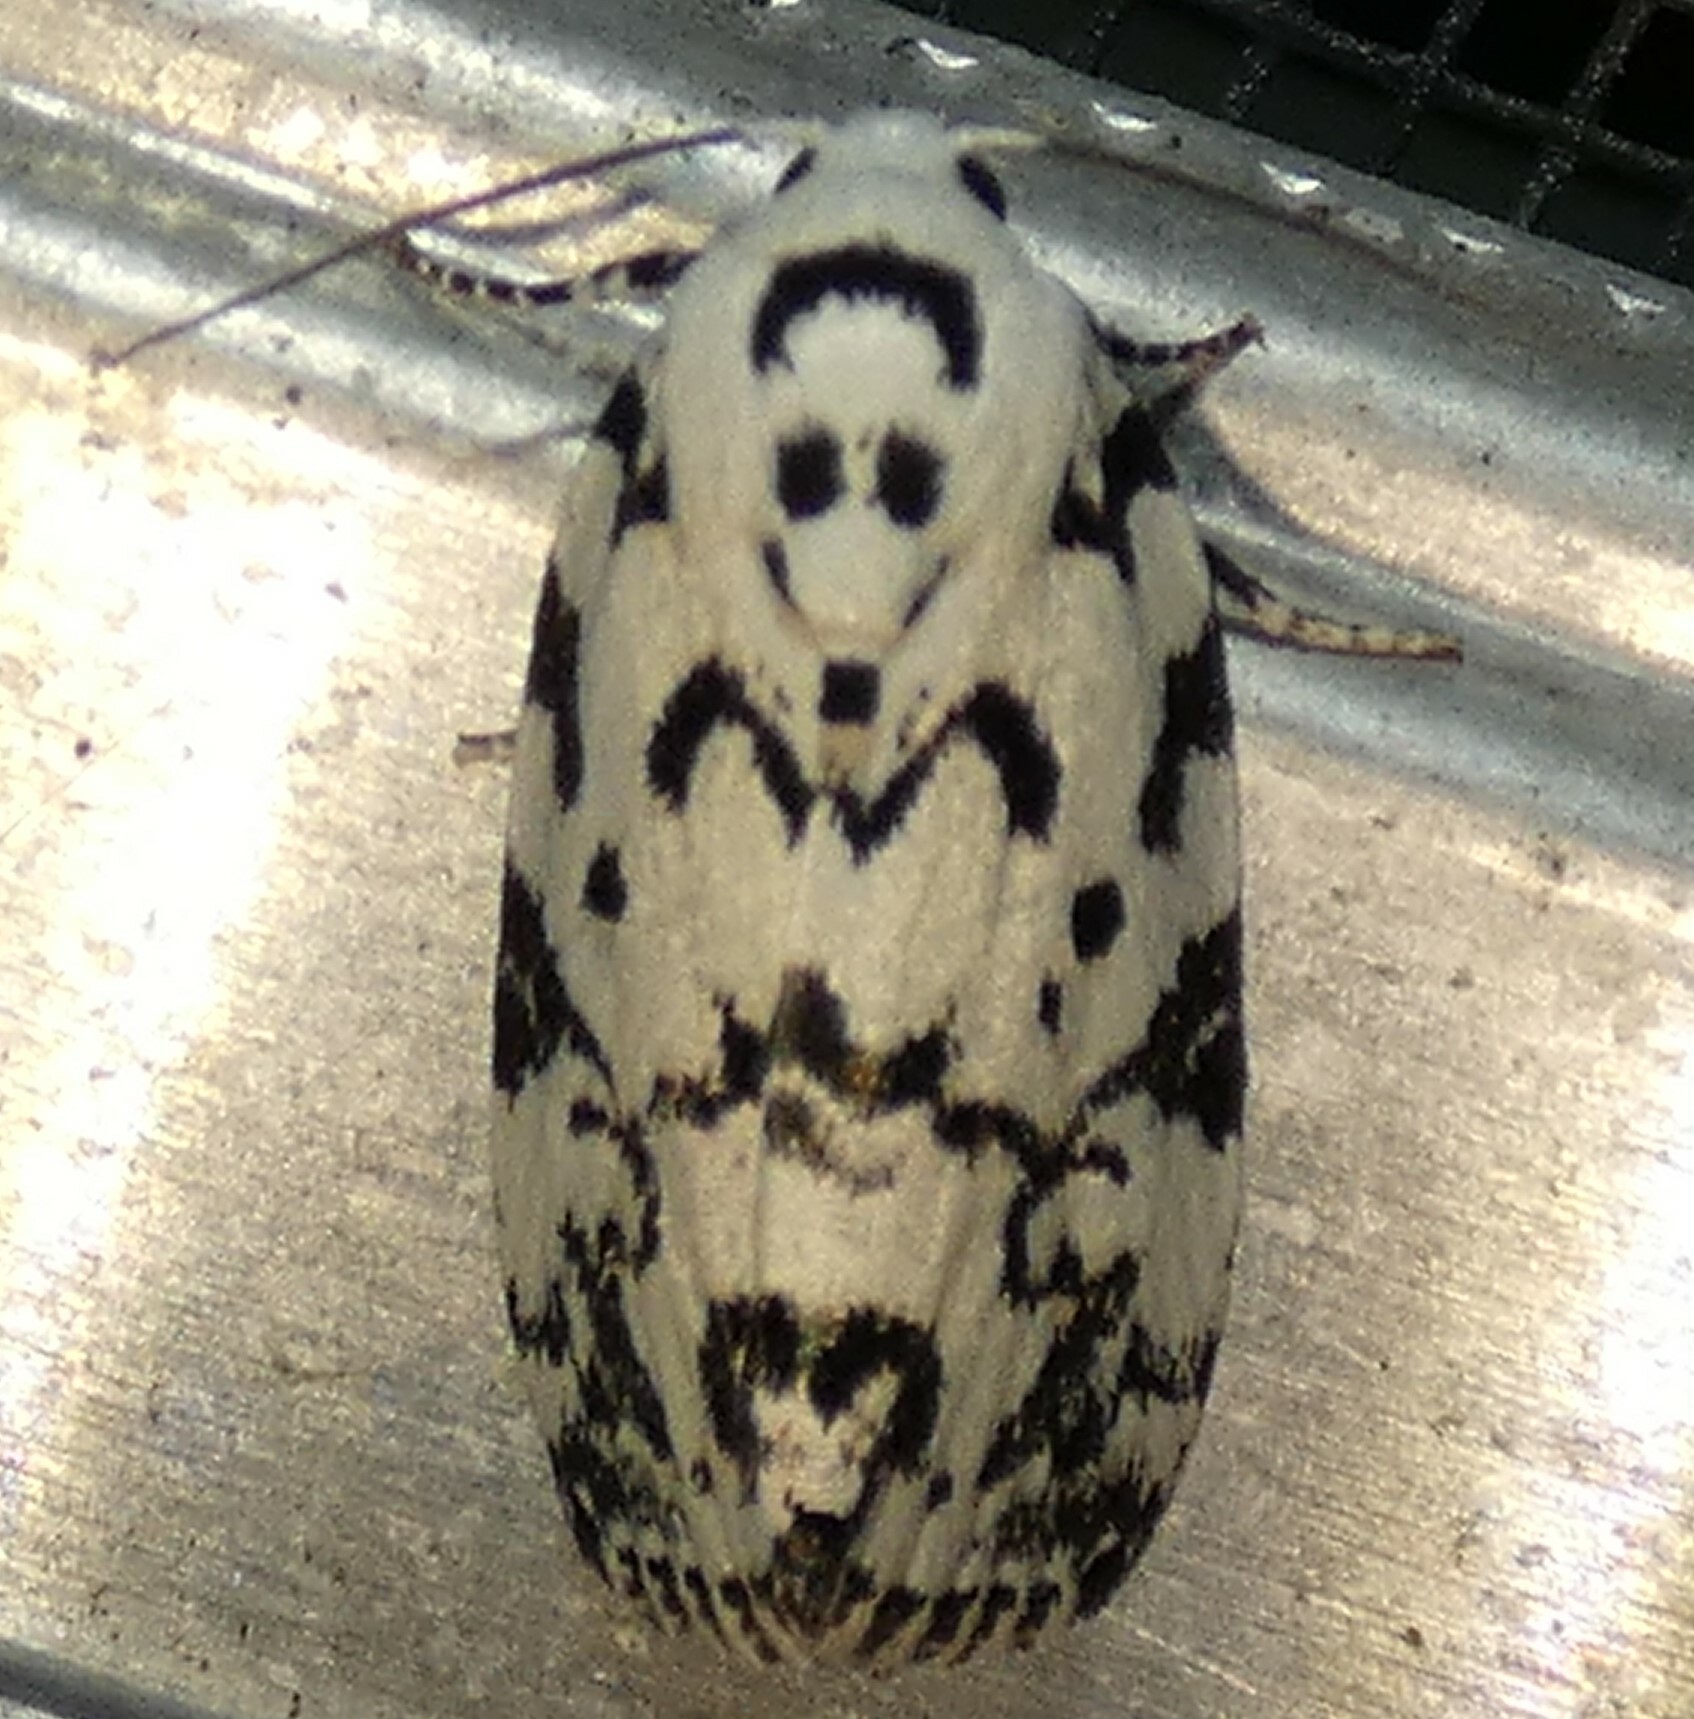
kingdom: Animalia
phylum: Arthropoda
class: Insecta
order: Lepidoptera
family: Noctuidae
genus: Polygrammate
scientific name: Polygrammate hebraeicum
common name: Hebrew moth
